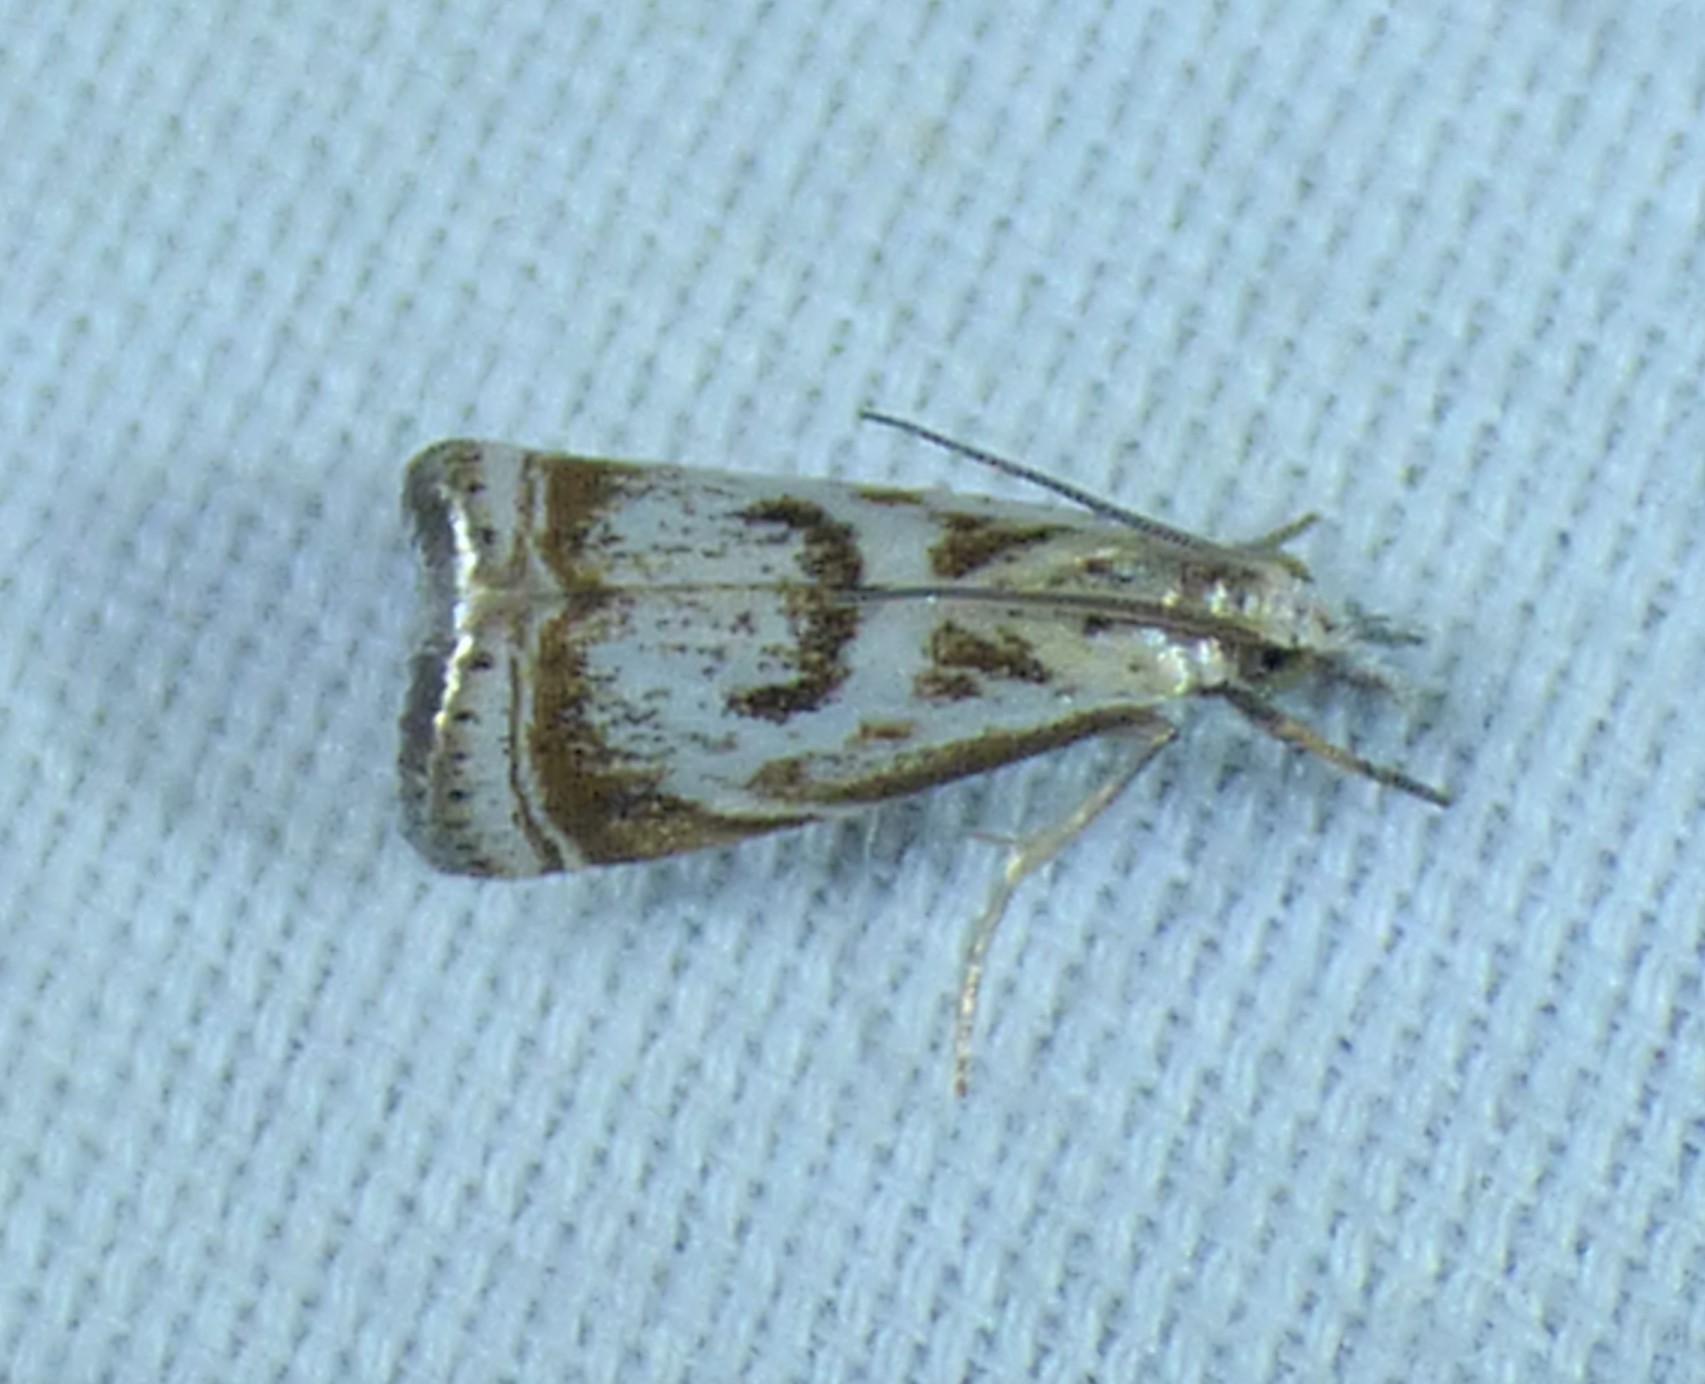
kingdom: Animalia
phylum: Arthropoda
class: Insecta
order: Lepidoptera
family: Crambidae
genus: Microcrambus
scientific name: Microcrambus elegans
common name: Elegant grass-veneer
